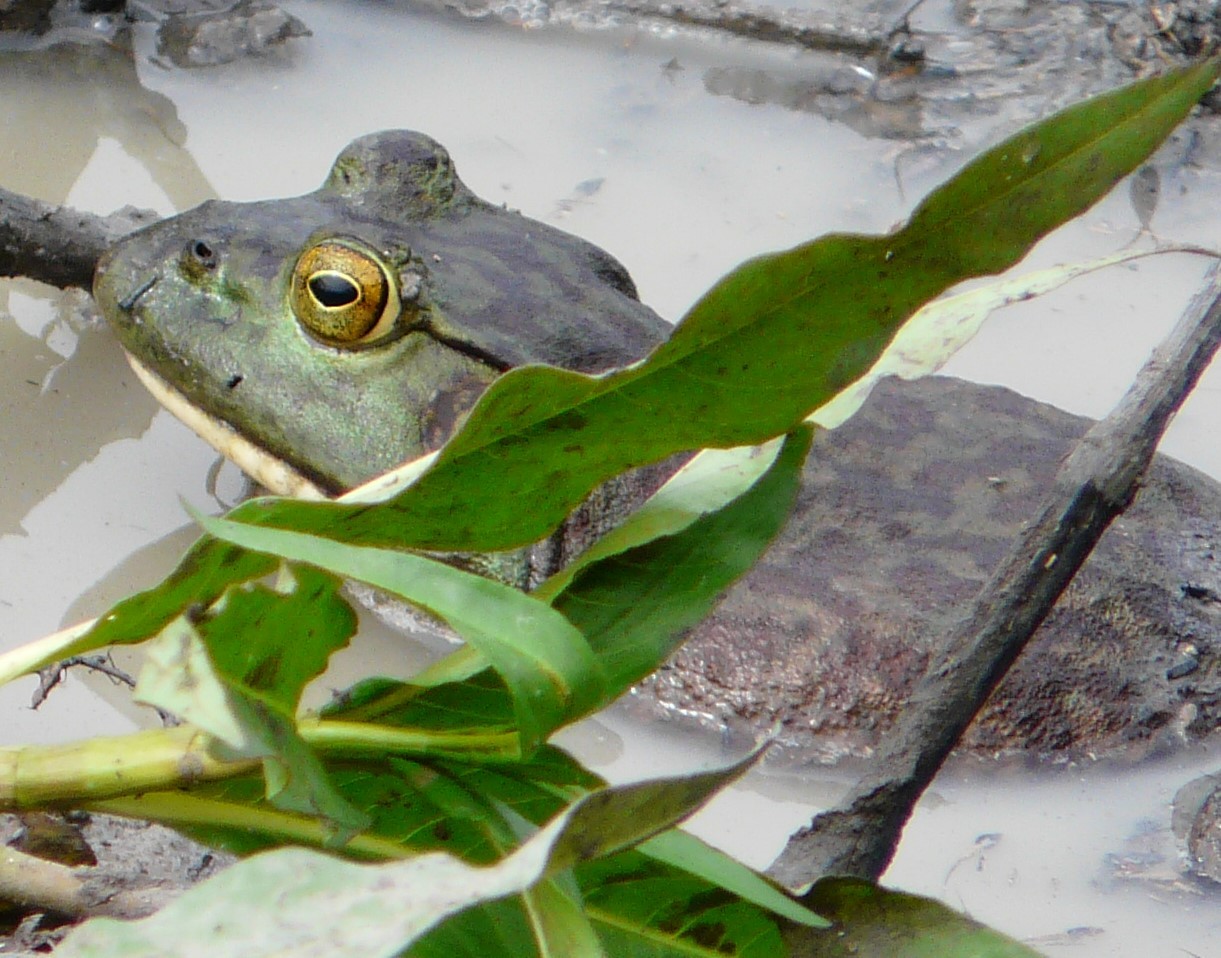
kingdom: Animalia
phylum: Chordata
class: Amphibia
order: Anura
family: Ranidae
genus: Lithobates
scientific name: Lithobates catesbeianus
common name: American bullfrog
